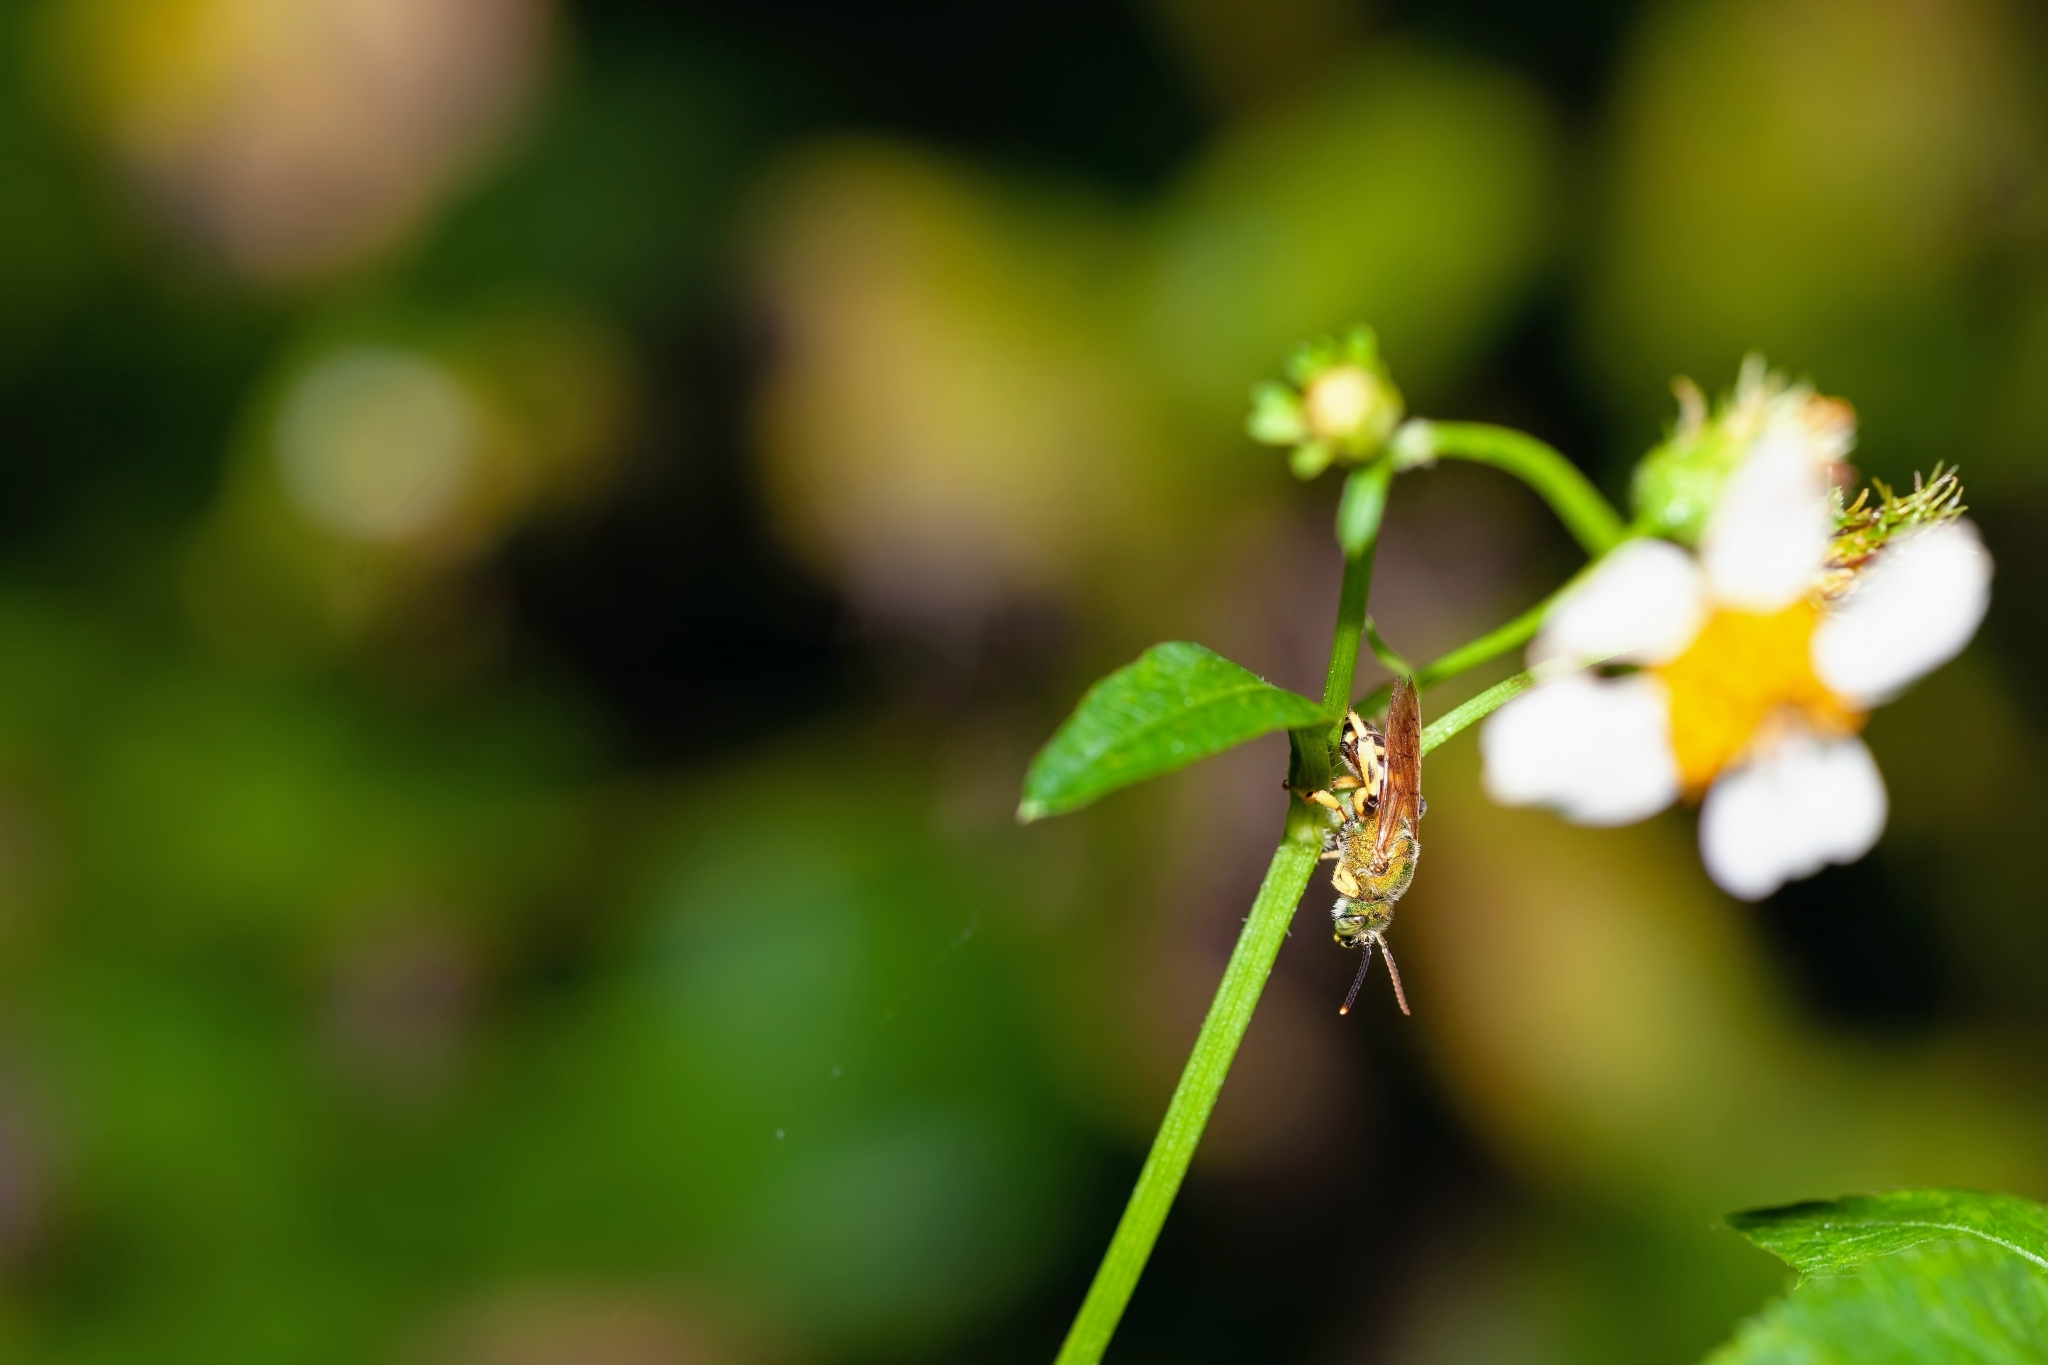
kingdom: Animalia
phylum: Arthropoda
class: Insecta
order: Hymenoptera
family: Halictidae
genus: Agapostemon
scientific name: Agapostemon splendens
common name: Brown-winged striped sweat bee
